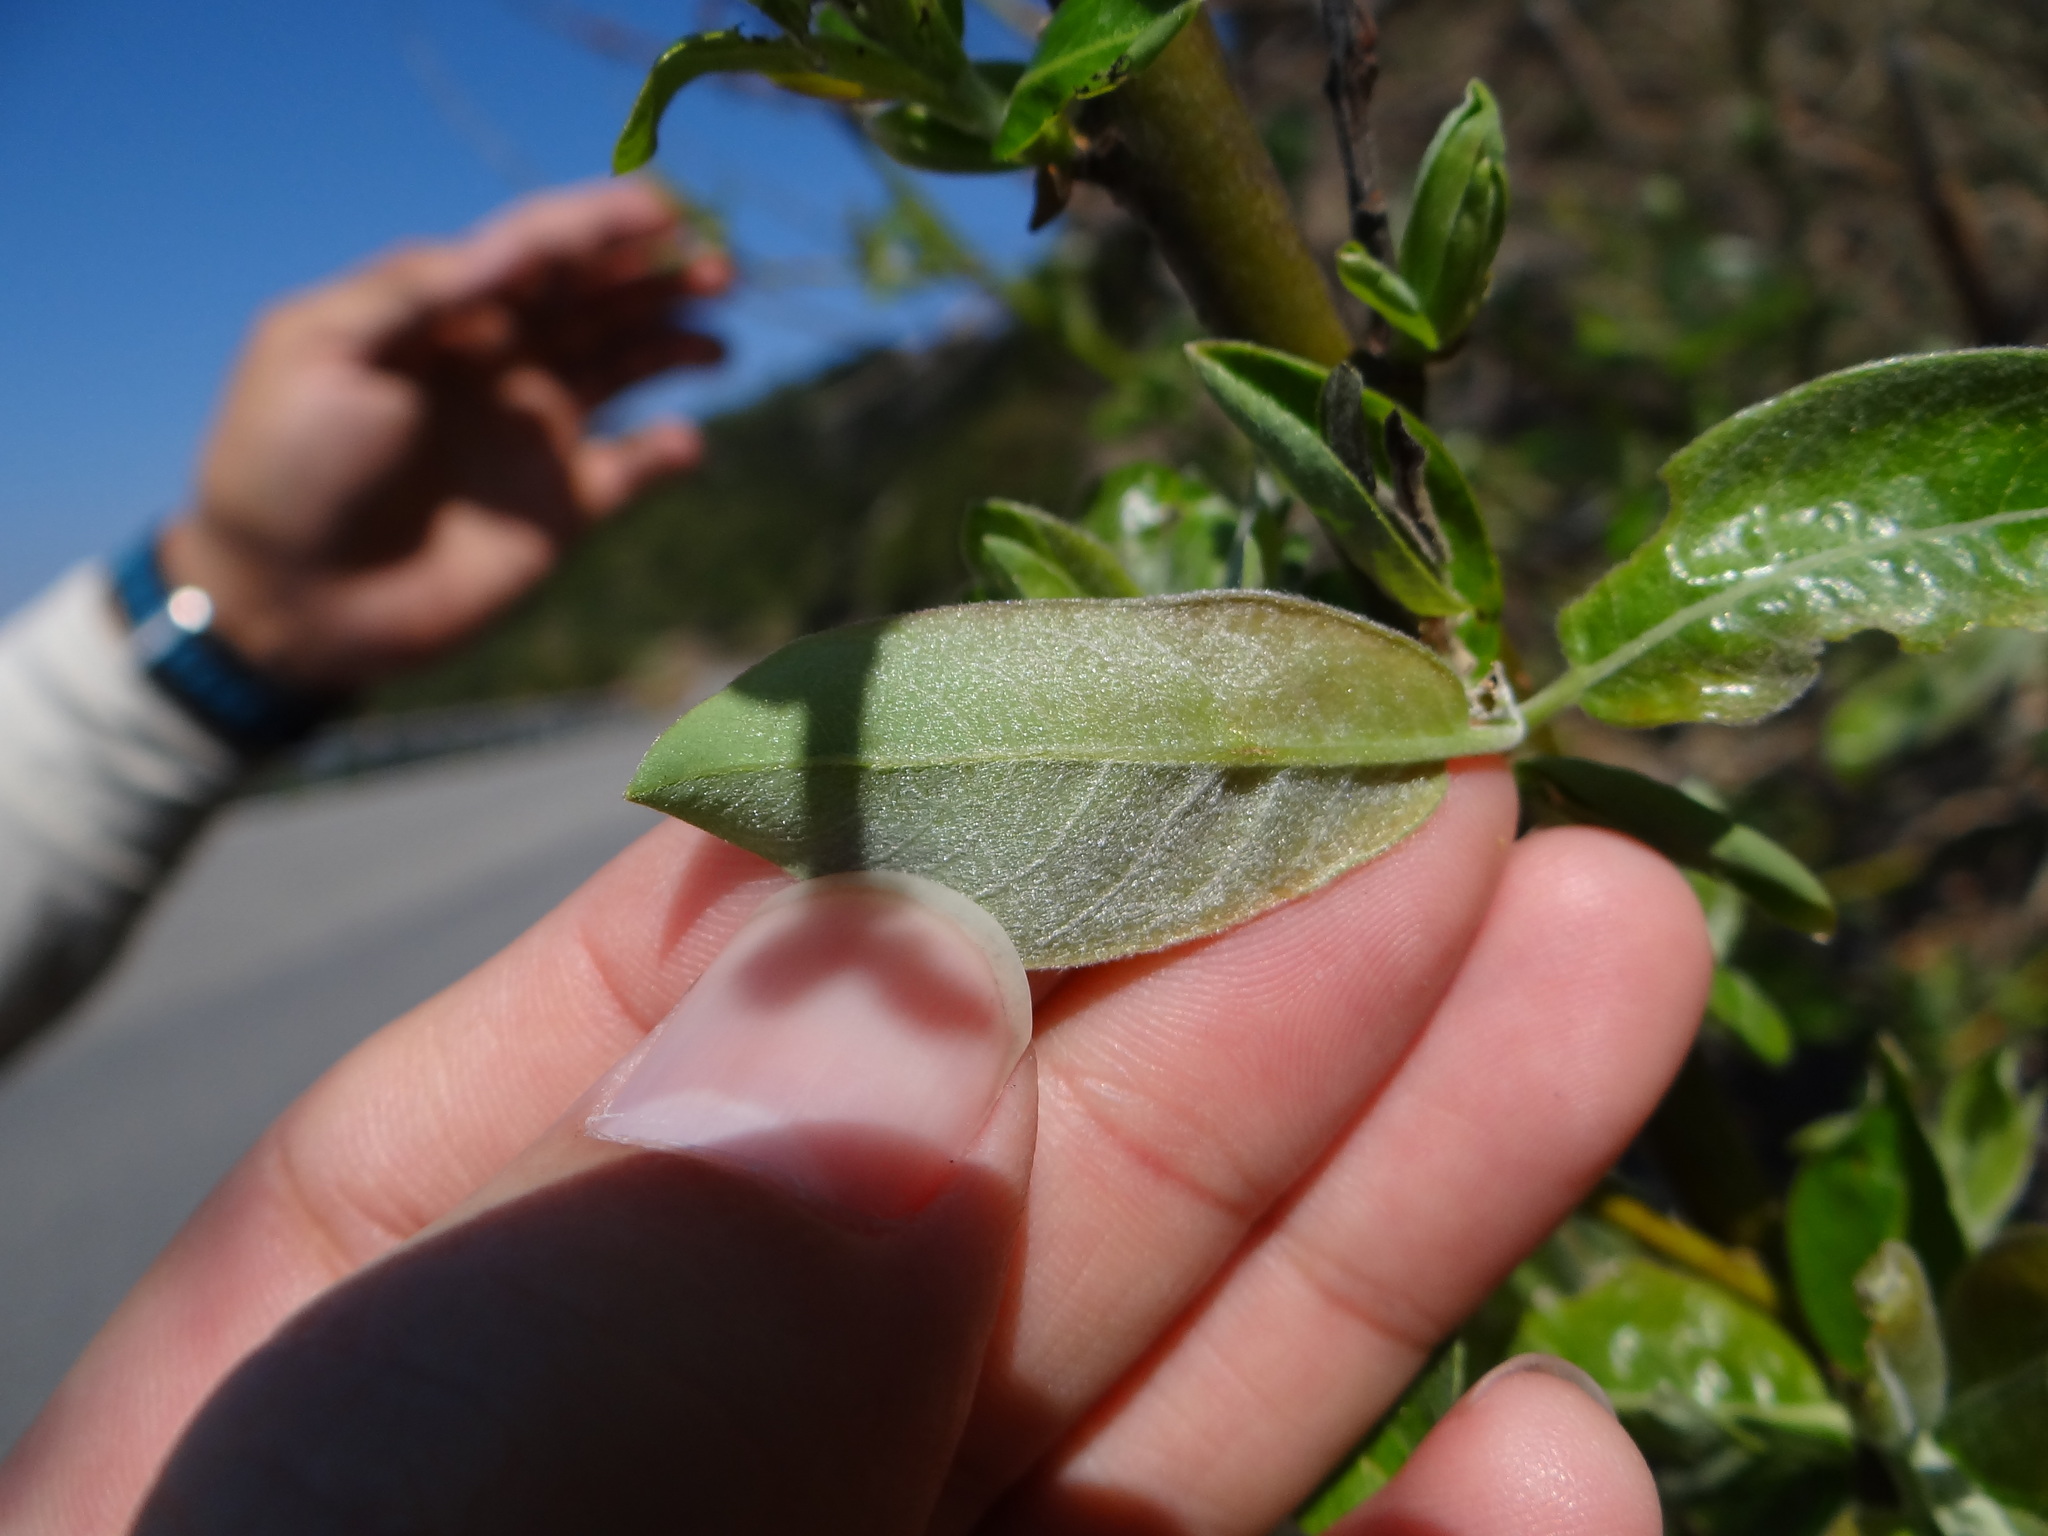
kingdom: Plantae
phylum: Tracheophyta
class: Magnoliopsida
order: Malpighiales
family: Salicaceae
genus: Salix
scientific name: Salix fulvopubescens
